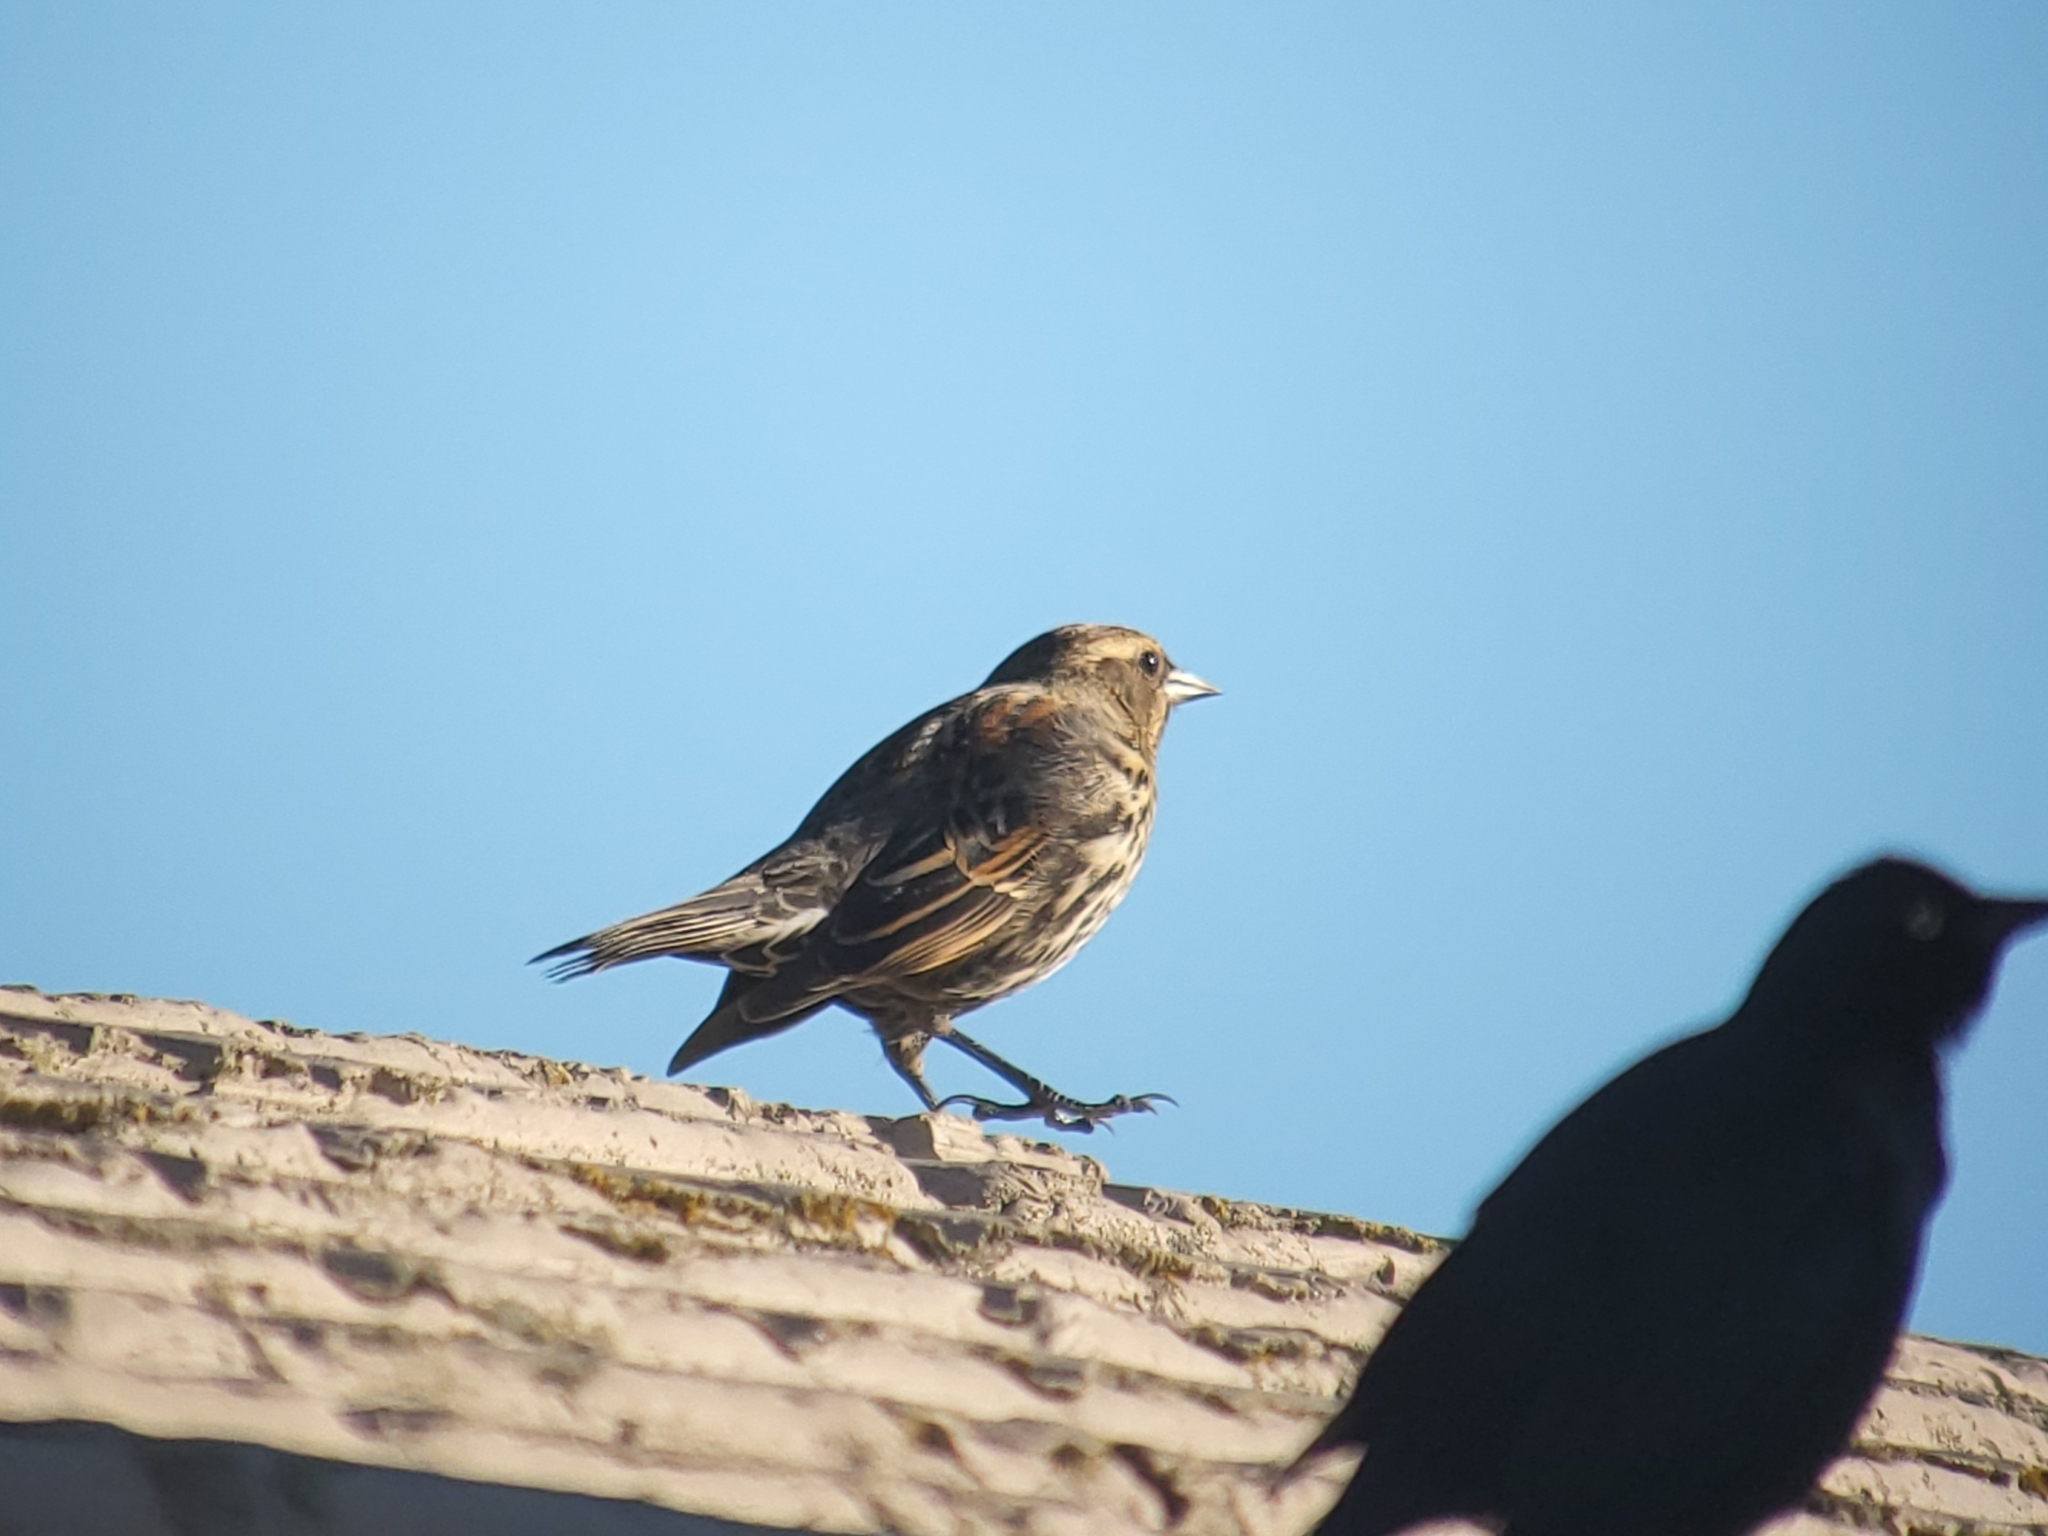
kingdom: Animalia
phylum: Chordata
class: Aves
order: Passeriformes
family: Icteridae
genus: Agelaius
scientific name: Agelaius phoeniceus
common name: Red-winged blackbird
